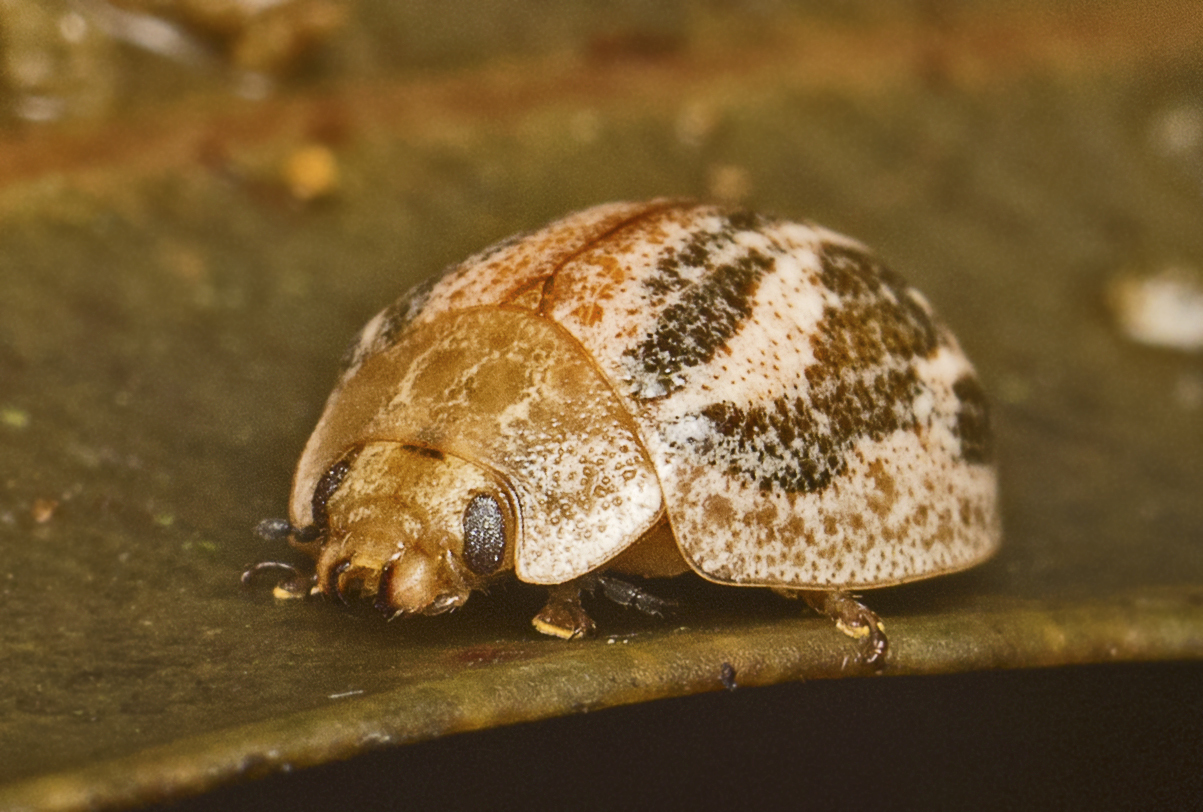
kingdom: Animalia
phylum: Arthropoda
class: Insecta
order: Coleoptera
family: Chrysomelidae
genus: Paropsisterna
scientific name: Paropsisterna
